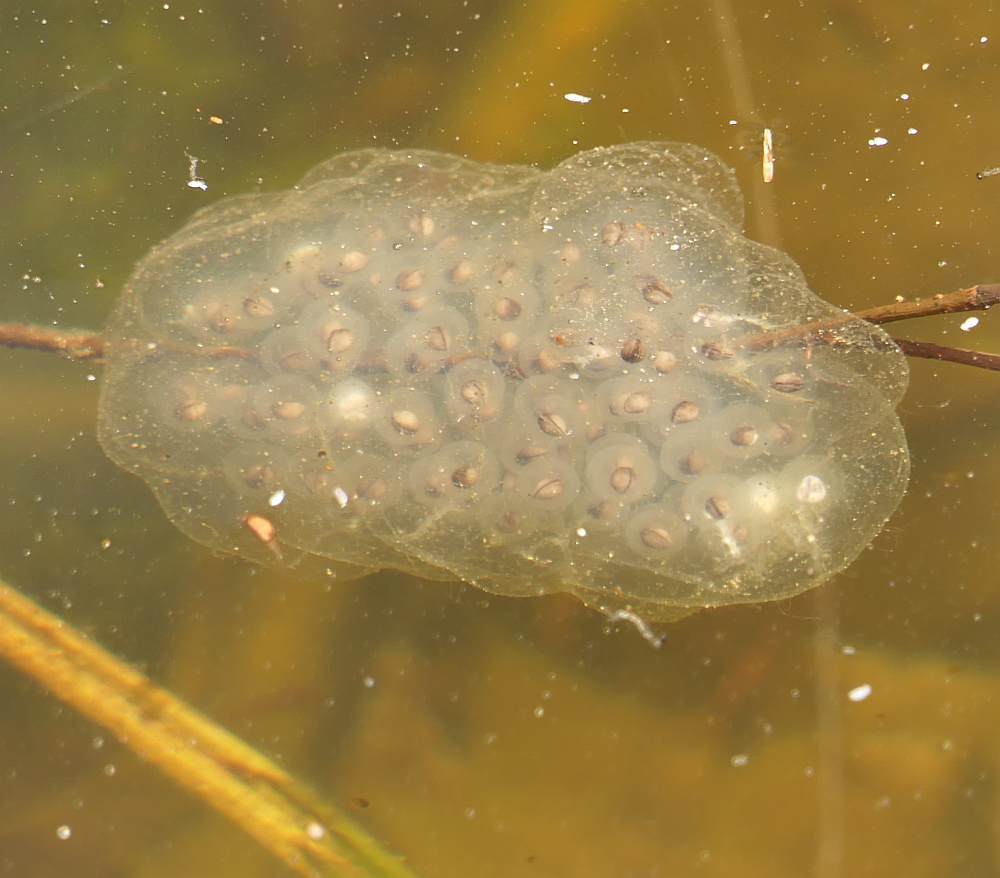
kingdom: Animalia
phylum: Chordata
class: Amphibia
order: Caudata
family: Ambystomatidae
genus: Ambystoma
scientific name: Ambystoma maculatum
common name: Spotted salamander
